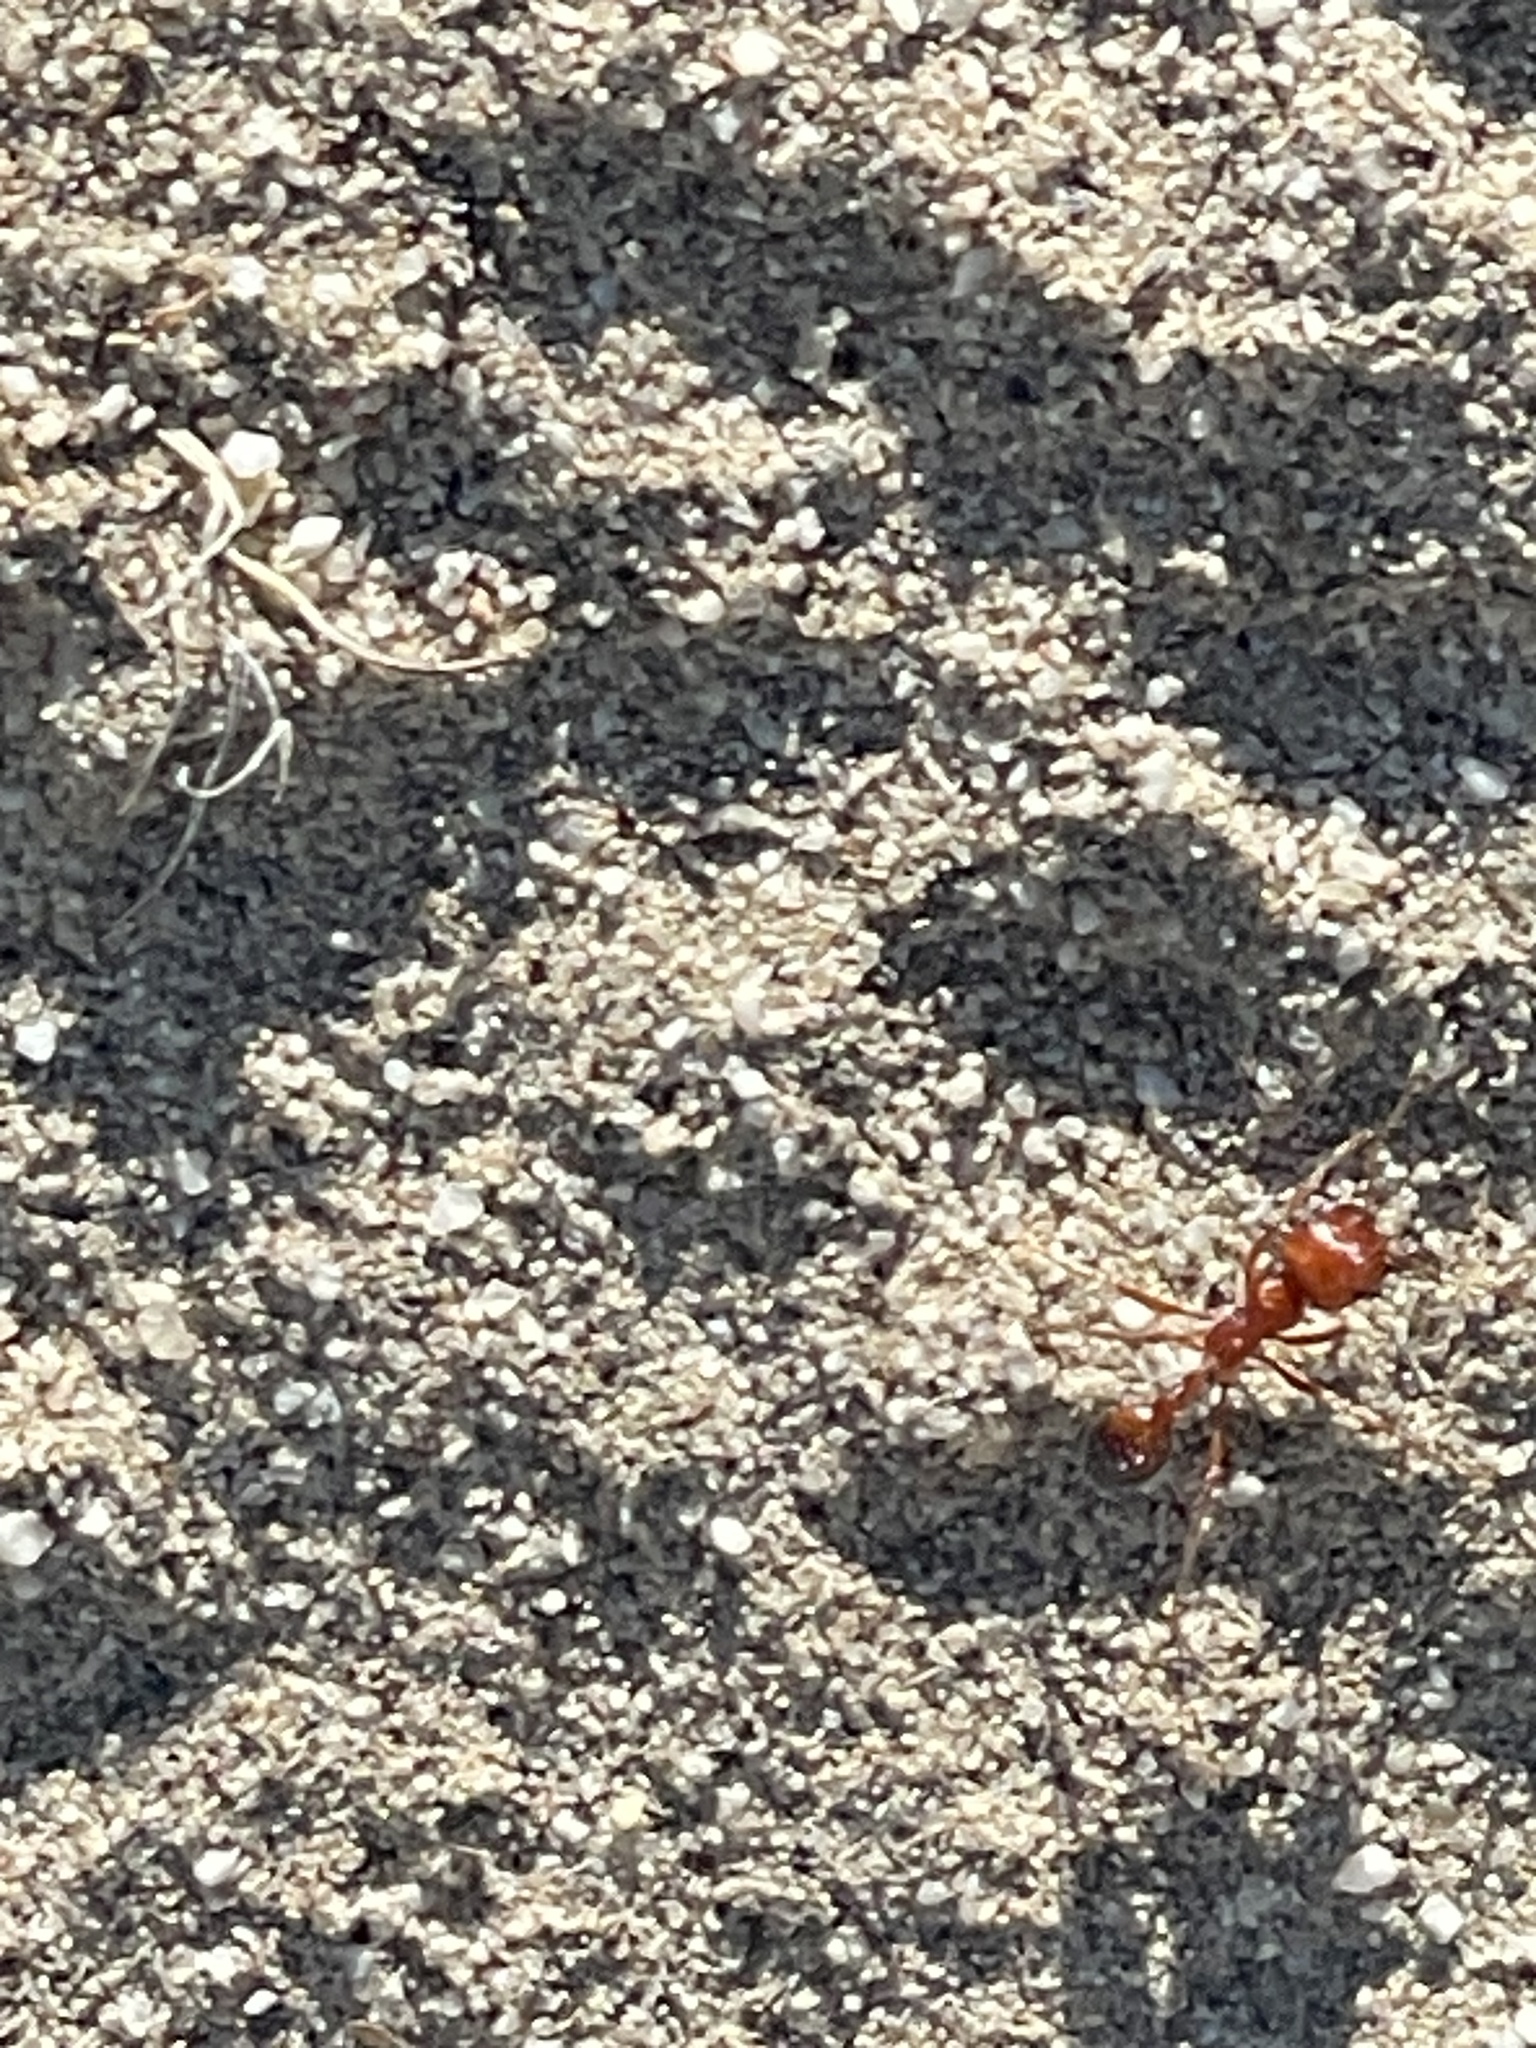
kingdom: Animalia
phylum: Arthropoda
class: Insecta
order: Hymenoptera
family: Formicidae
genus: Pogonomyrmex
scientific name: Pogonomyrmex californicus
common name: California harvester ant
